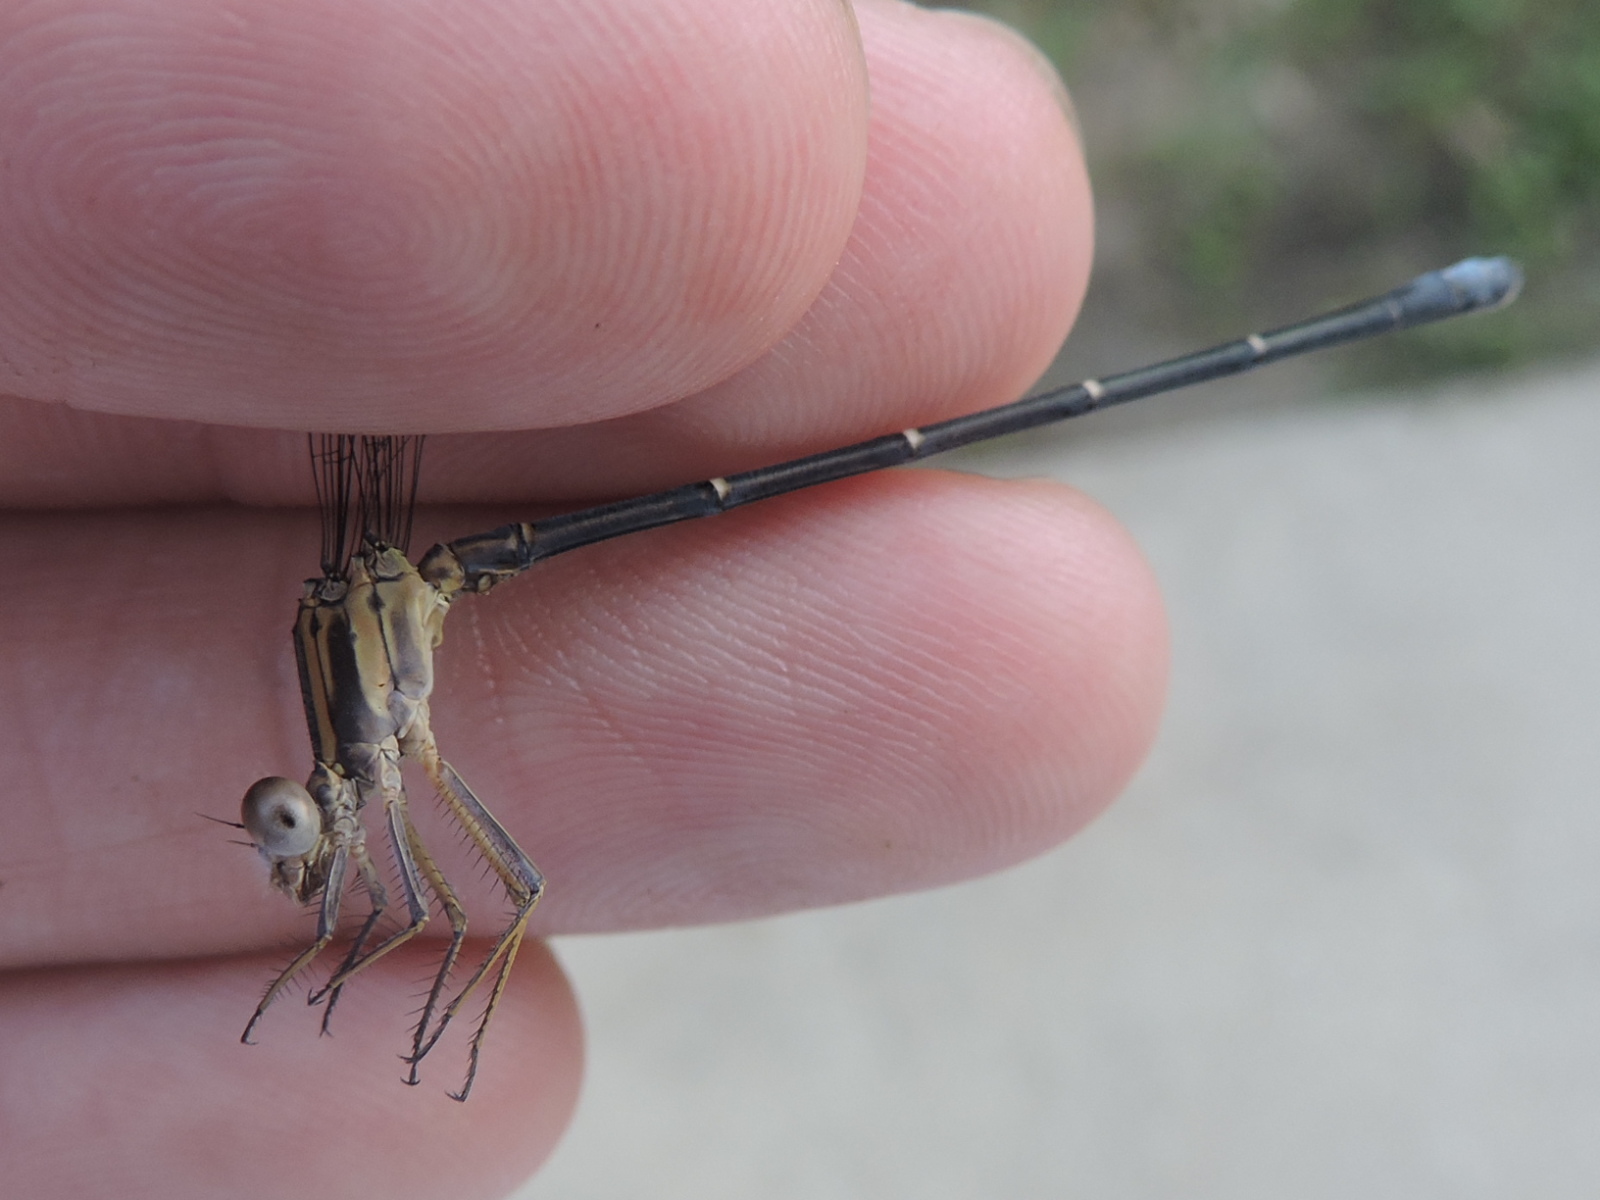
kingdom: Animalia
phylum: Arthropoda
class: Insecta
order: Odonata
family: Coenagrionidae
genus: Argia
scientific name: Argia moesta
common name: Powdered dancer
